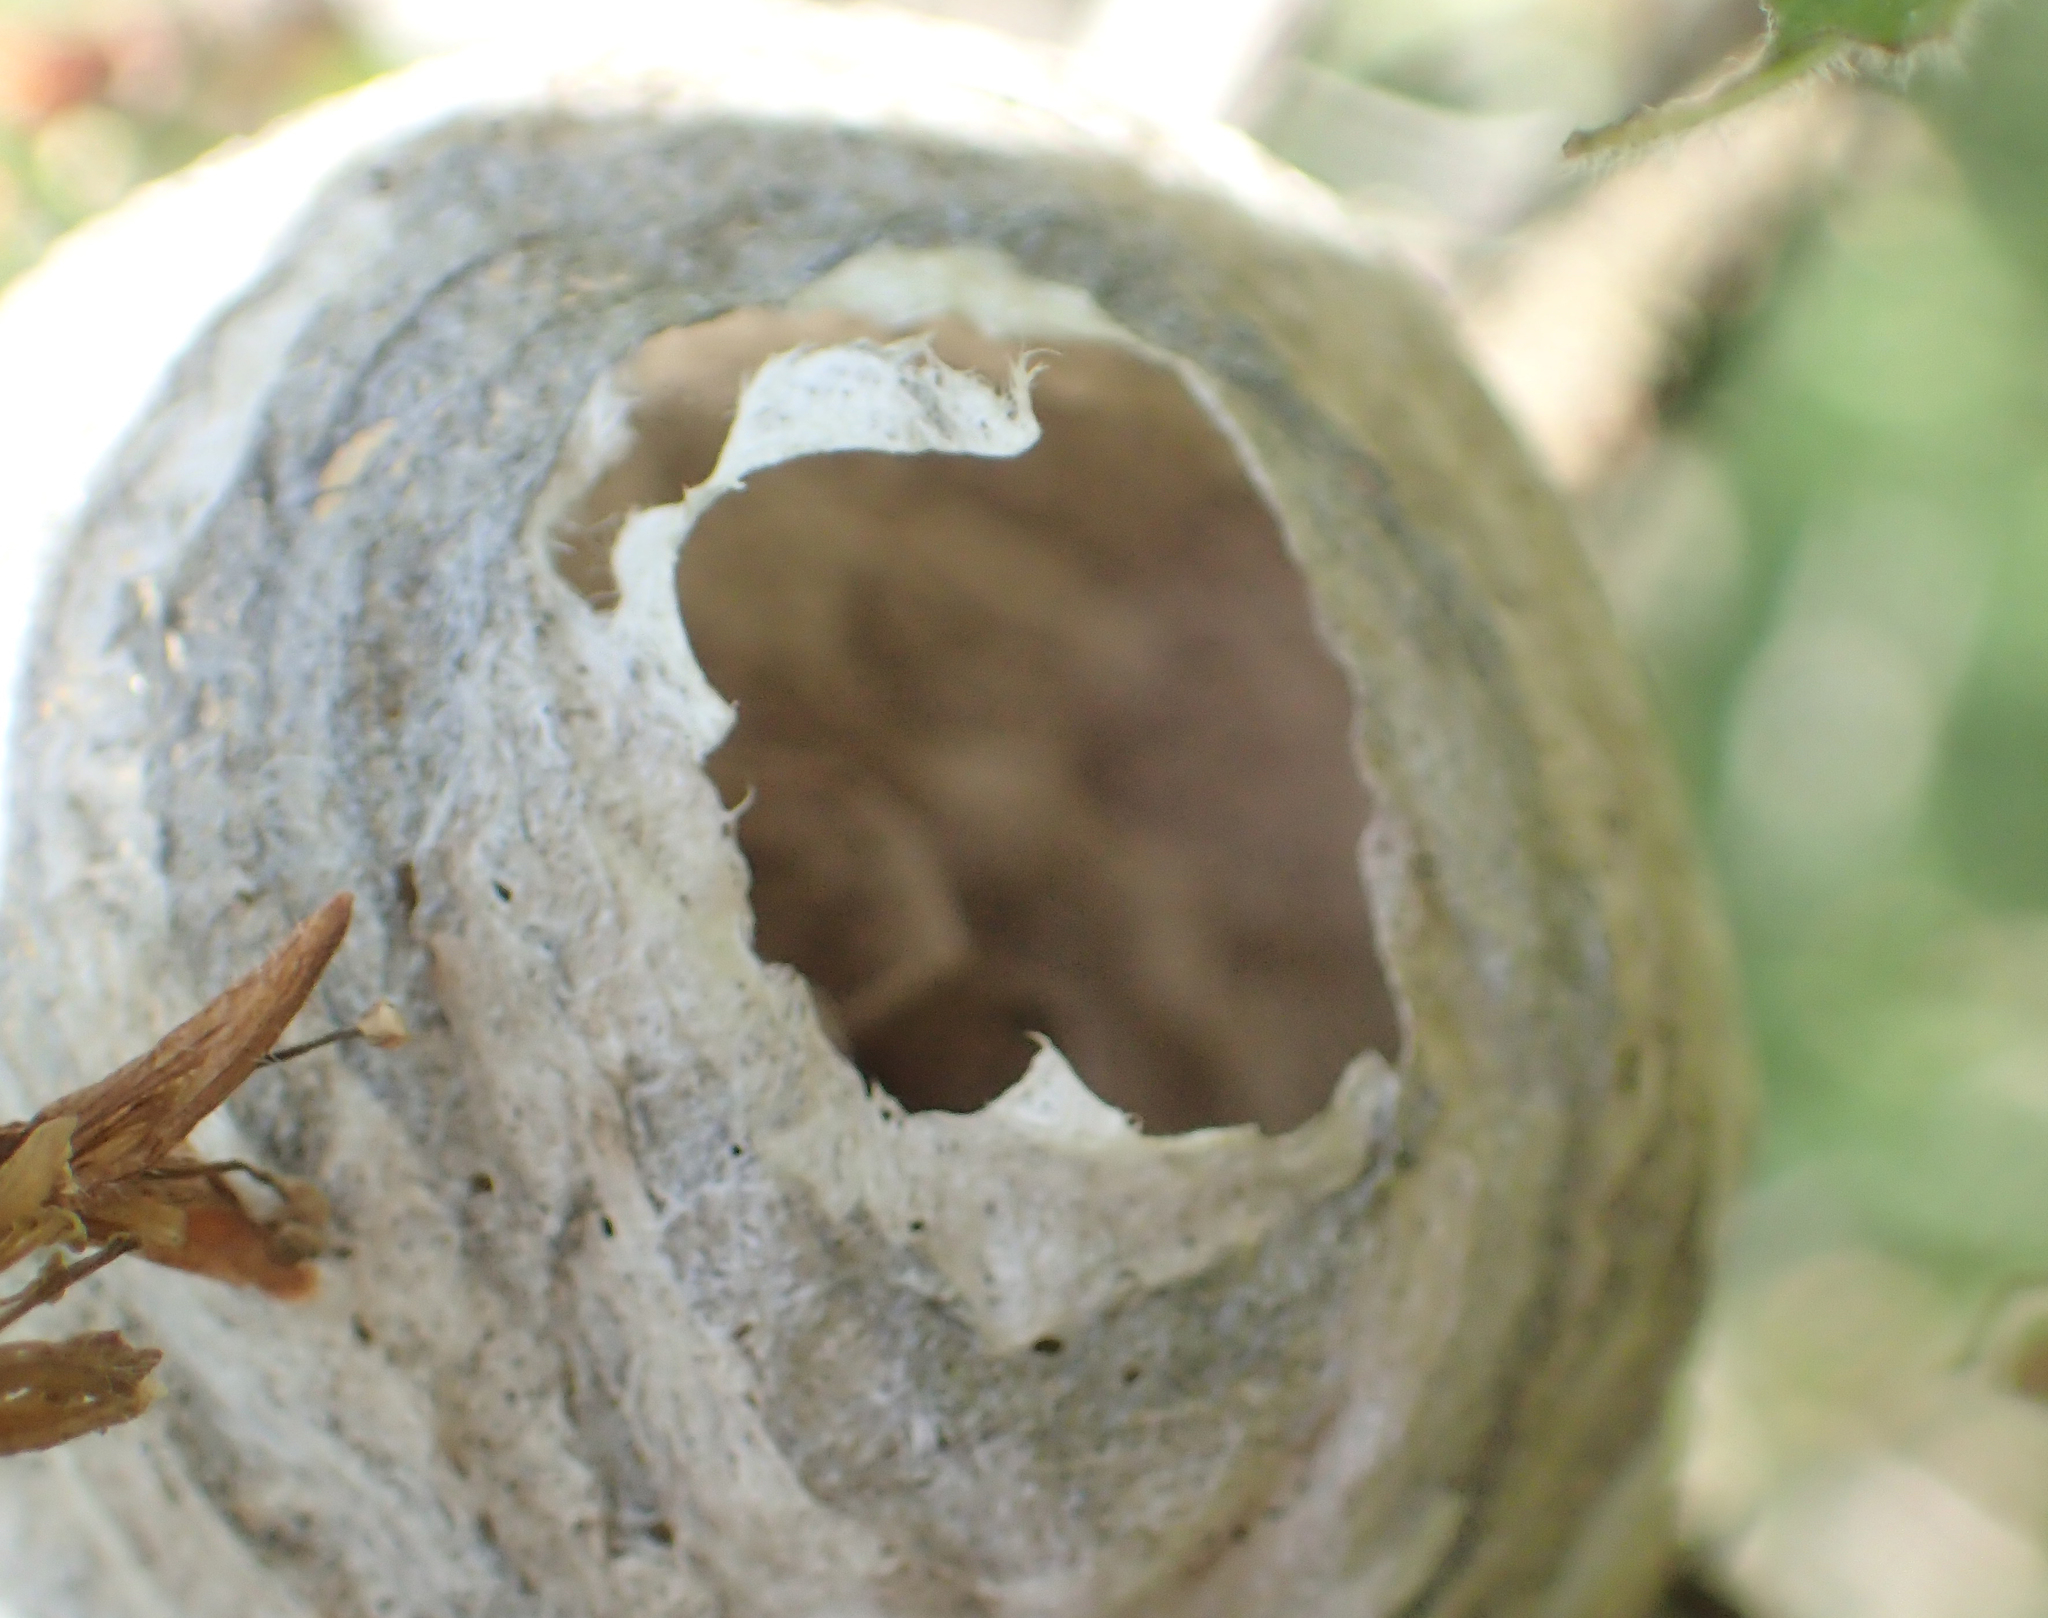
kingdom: Animalia
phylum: Arthropoda
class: Insecta
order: Hymenoptera
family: Vespidae
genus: Dolichovespula
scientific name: Dolichovespula
